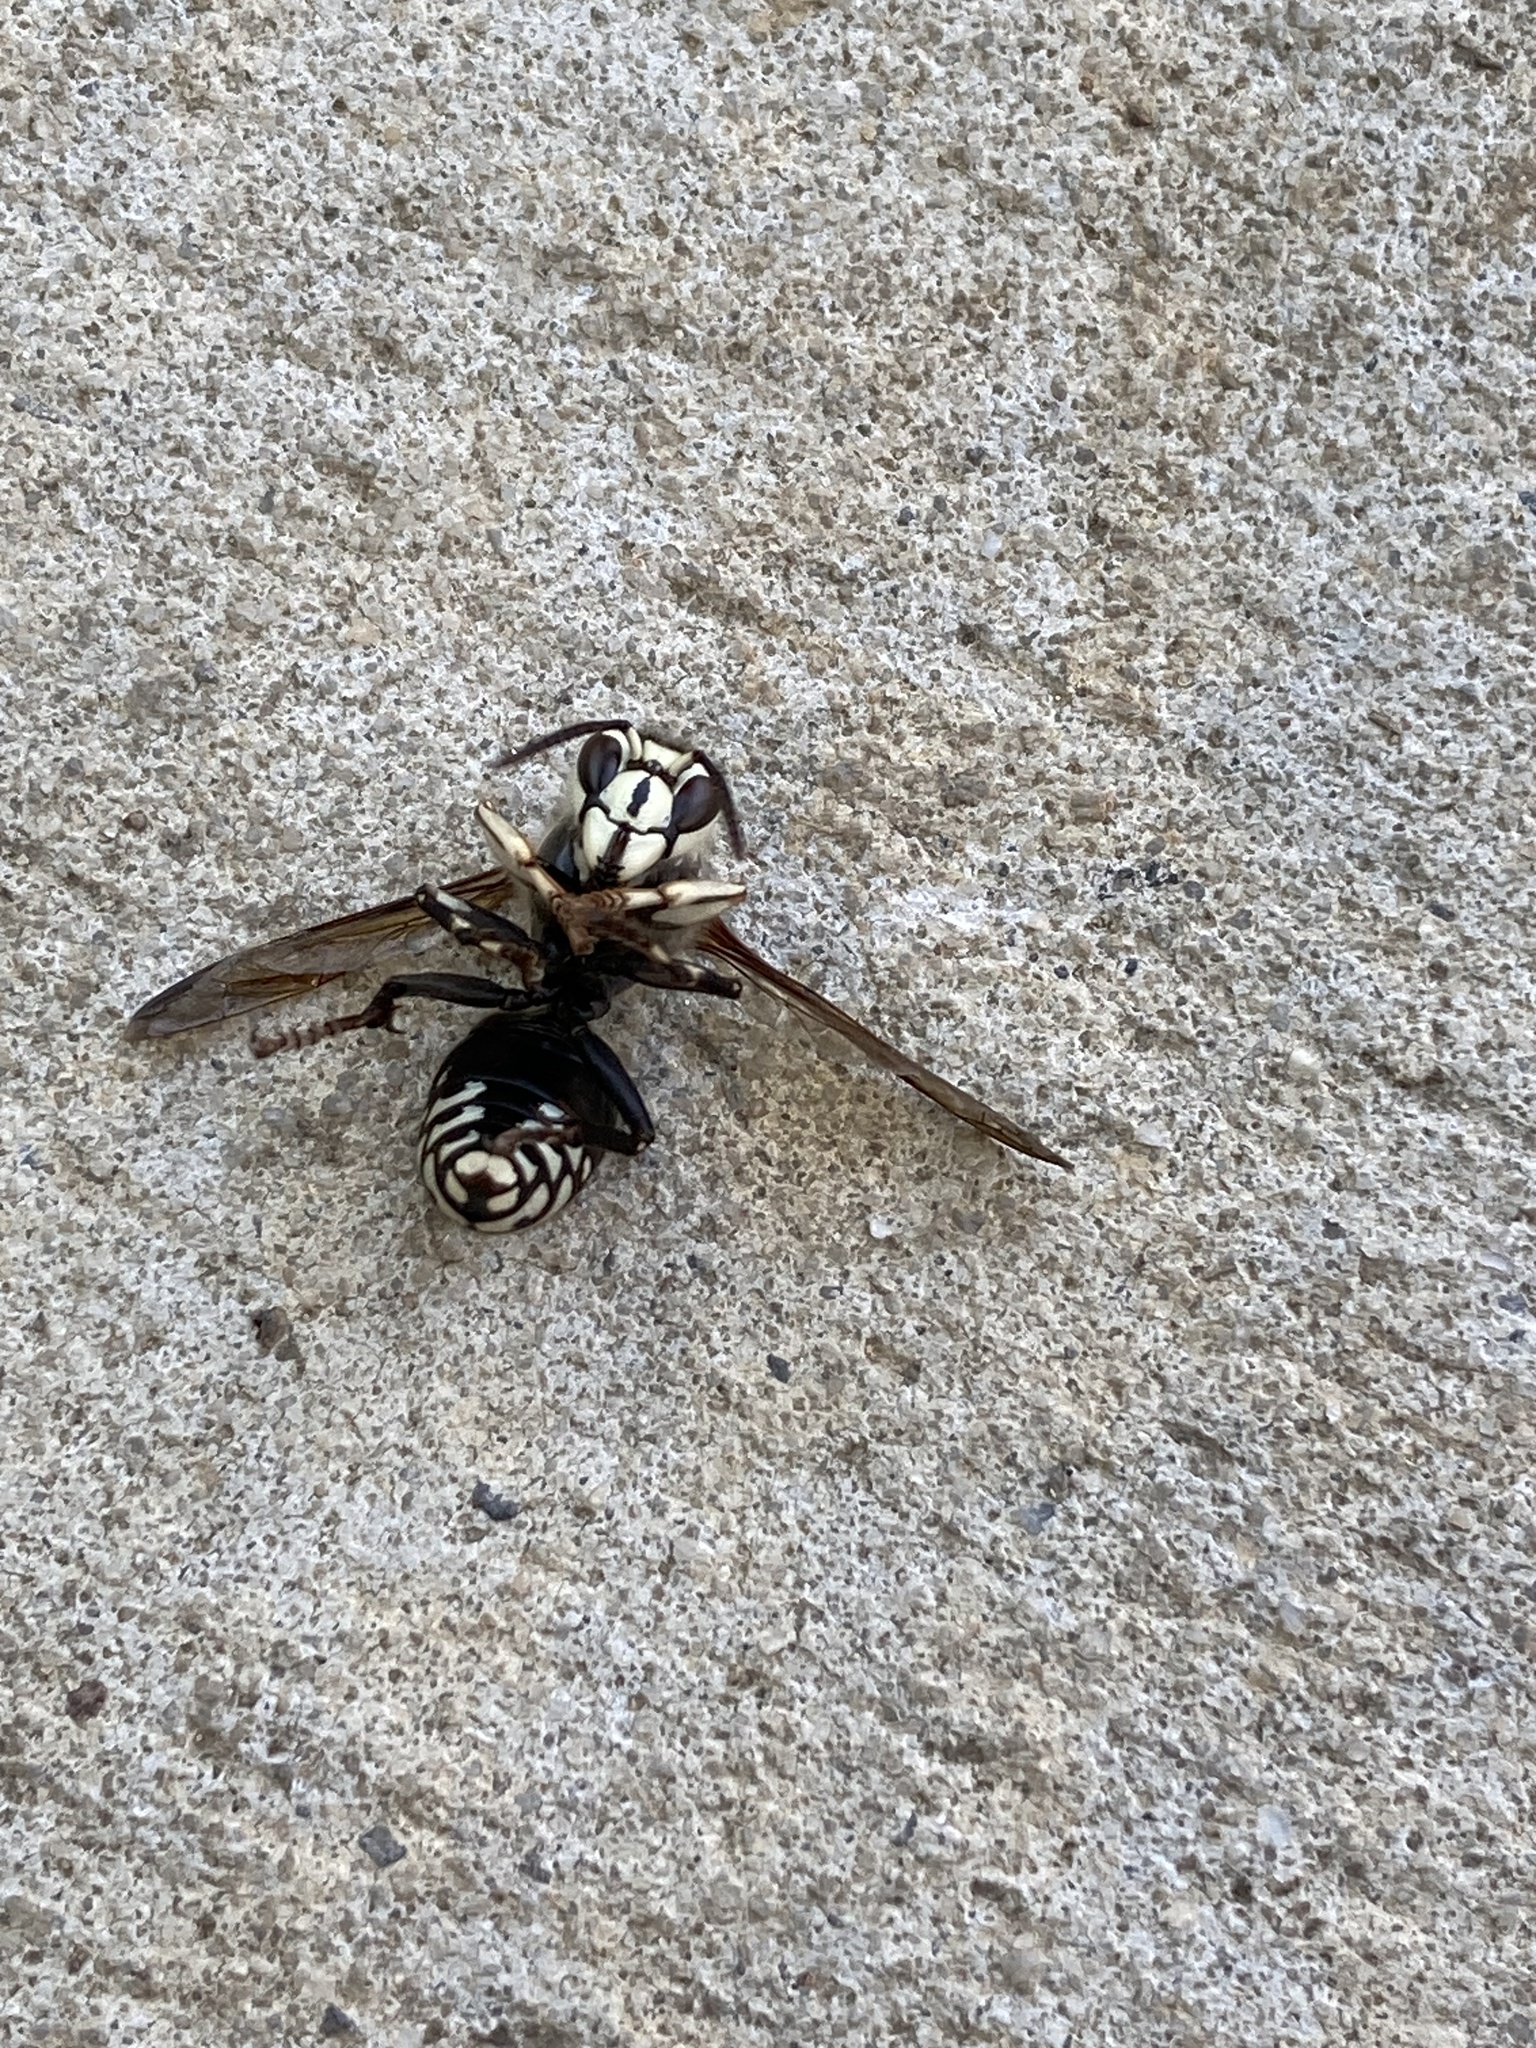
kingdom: Animalia
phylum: Arthropoda
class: Insecta
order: Hymenoptera
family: Vespidae
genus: Dolichovespula
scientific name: Dolichovespula maculata
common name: Bald-faced hornet
